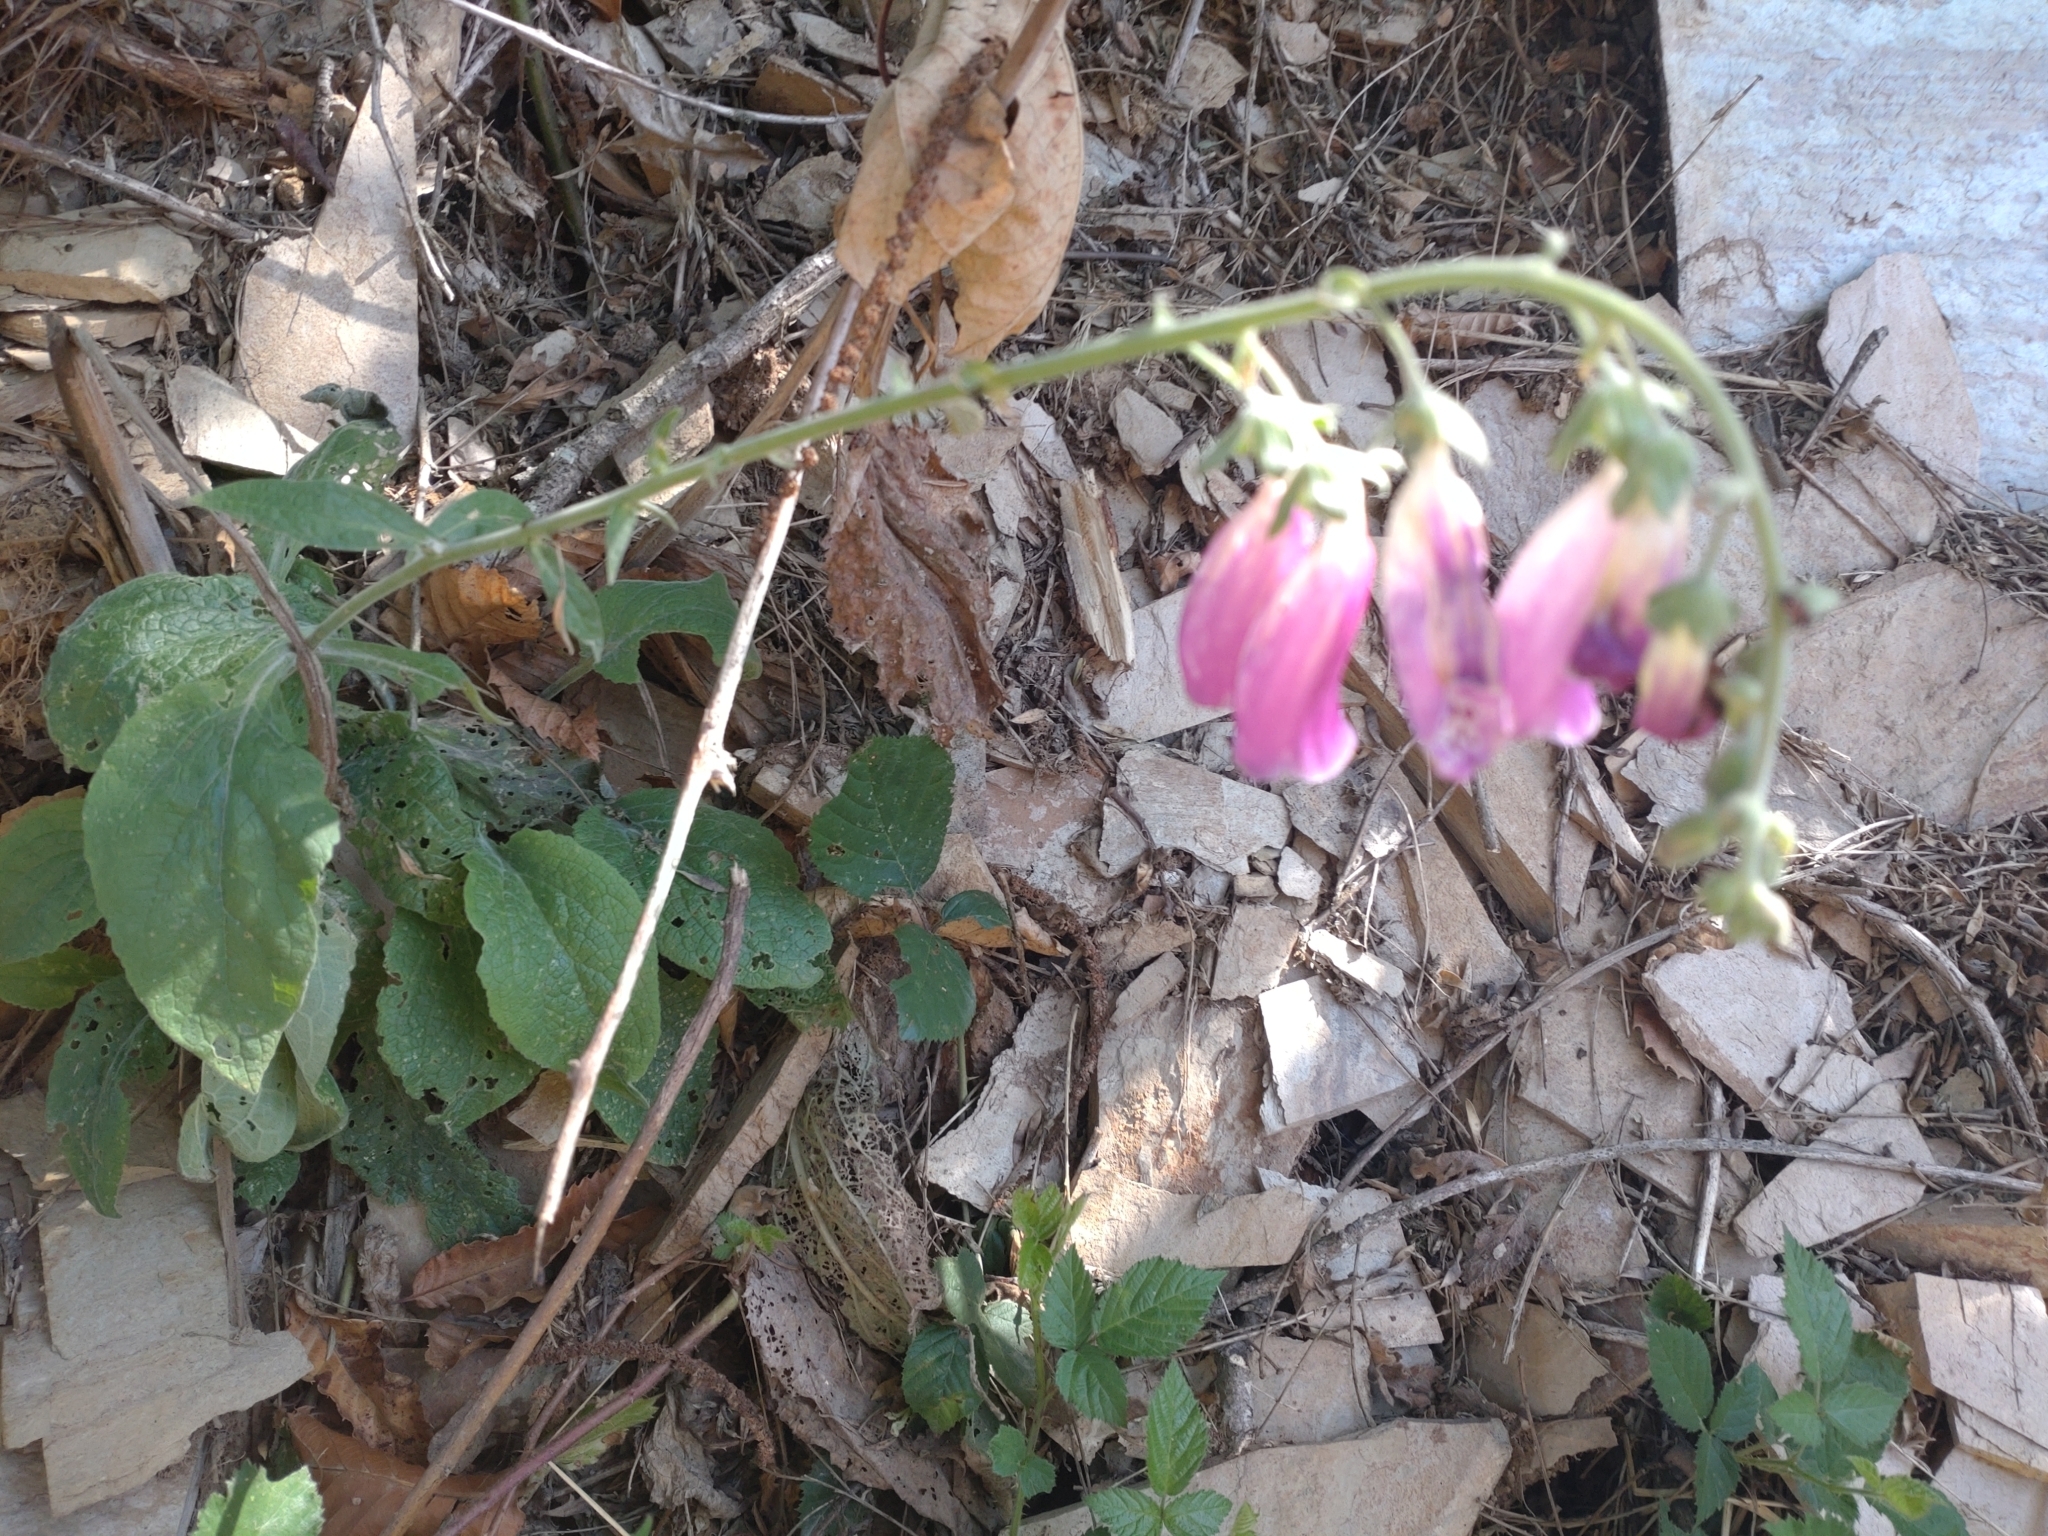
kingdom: Plantae
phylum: Tracheophyta
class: Magnoliopsida
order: Lamiales
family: Plantaginaceae
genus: Digitalis
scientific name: Digitalis purpurea
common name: Foxglove
